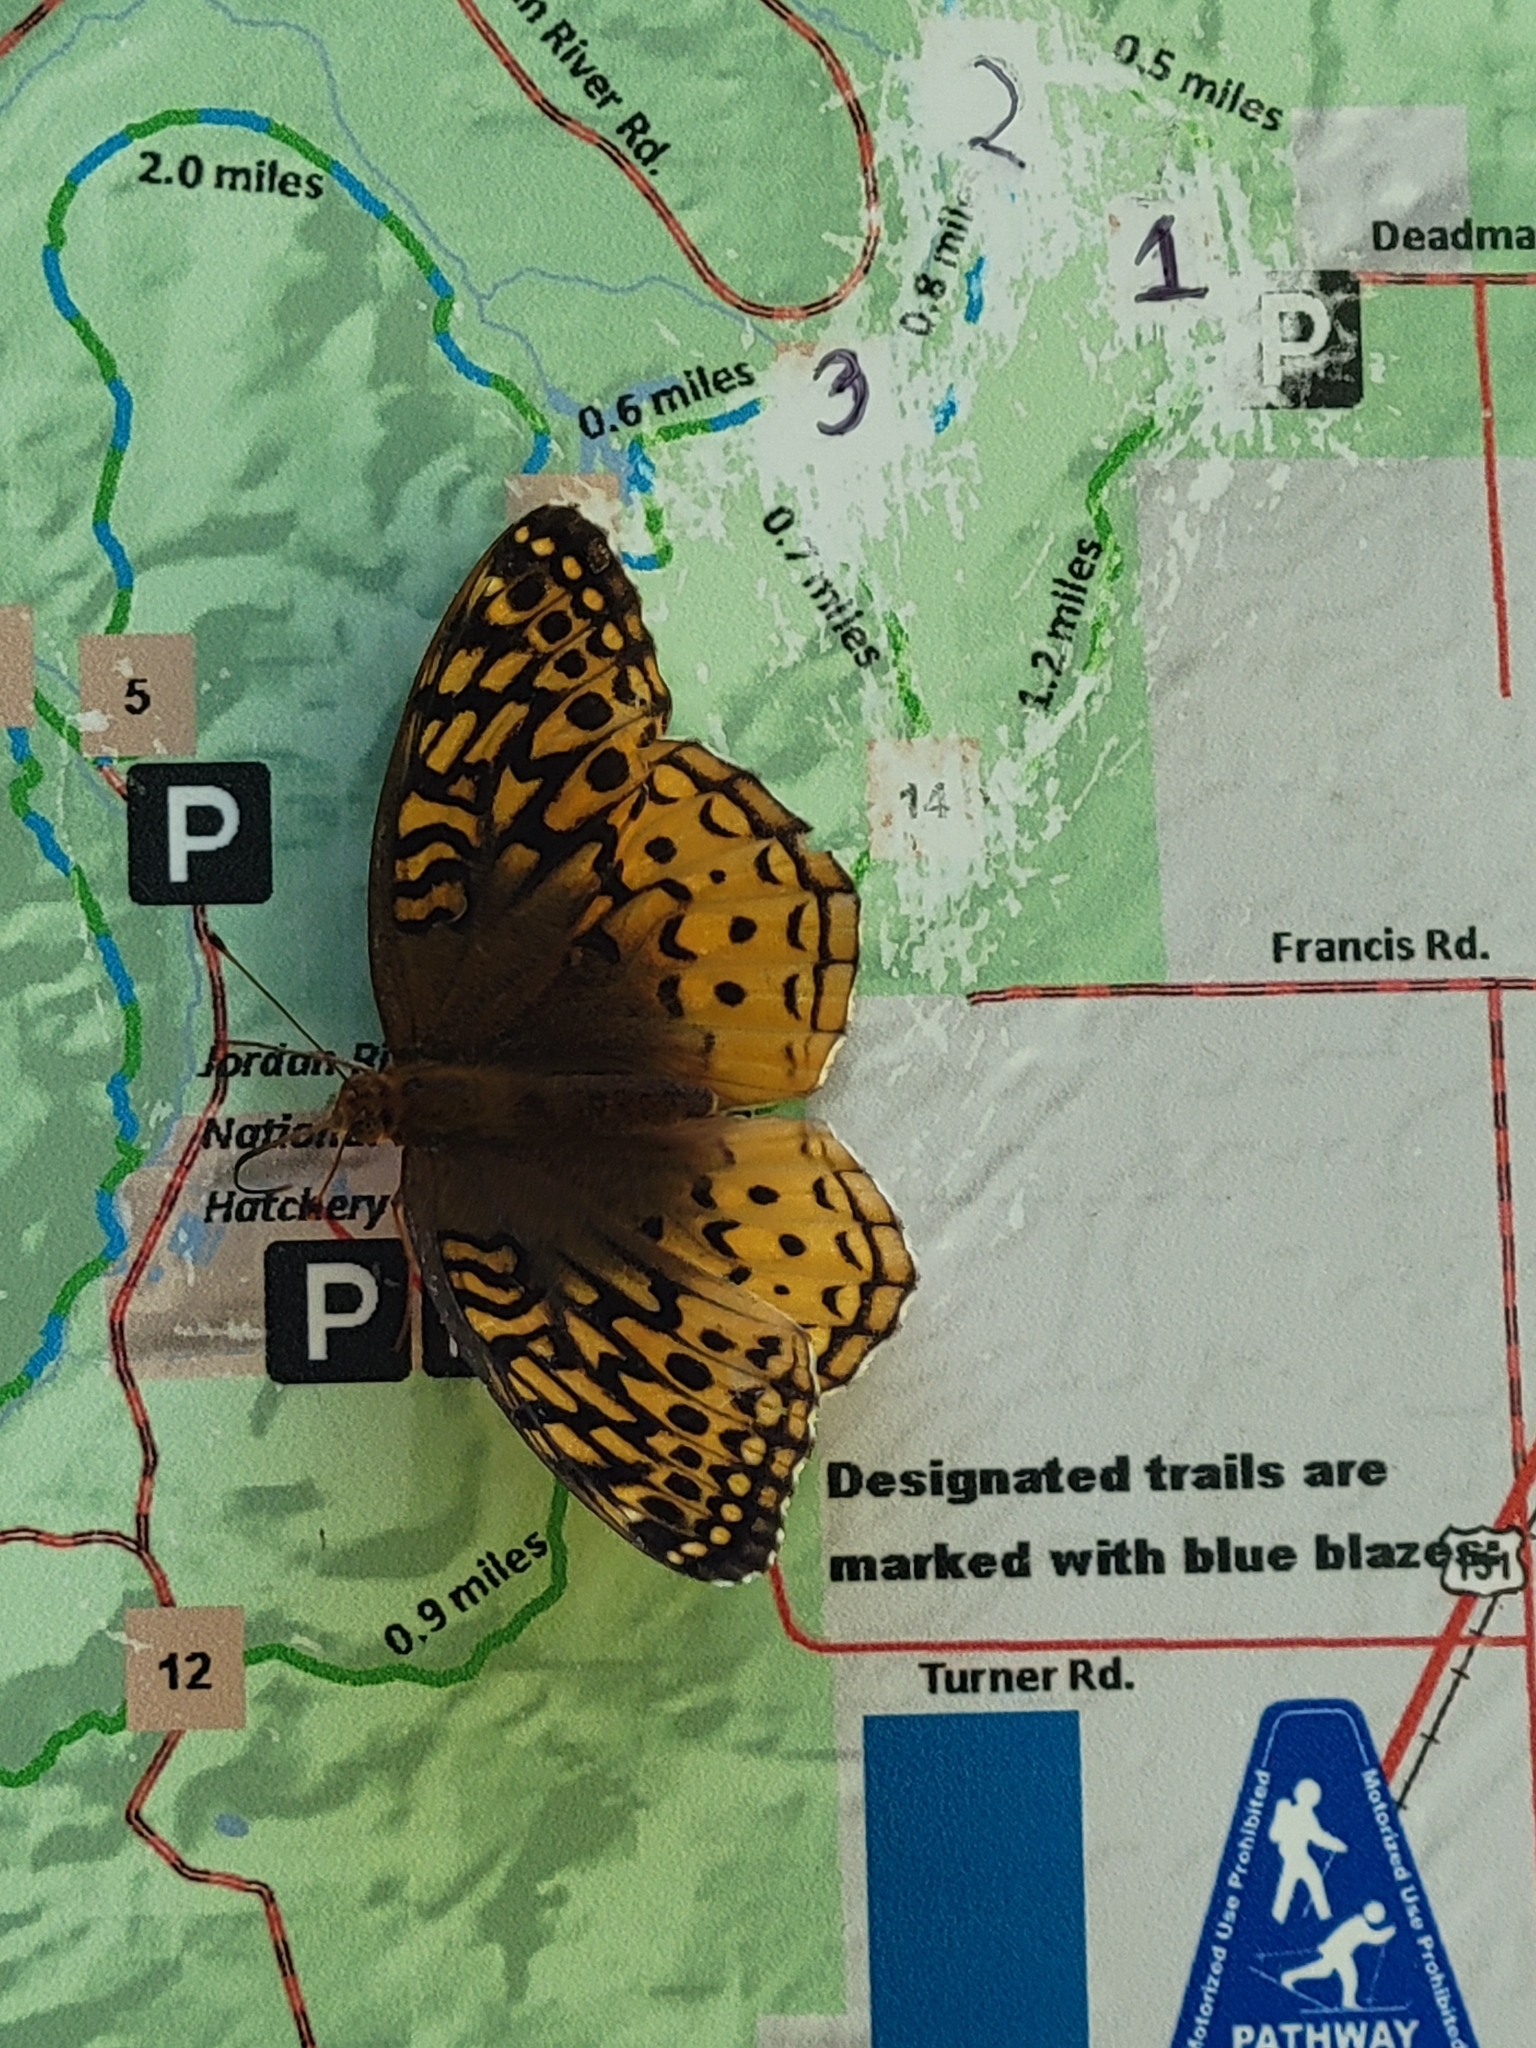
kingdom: Animalia
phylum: Arthropoda
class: Insecta
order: Lepidoptera
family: Nymphalidae
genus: Speyeria
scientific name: Speyeria cybele
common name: Great spangled fritillary
